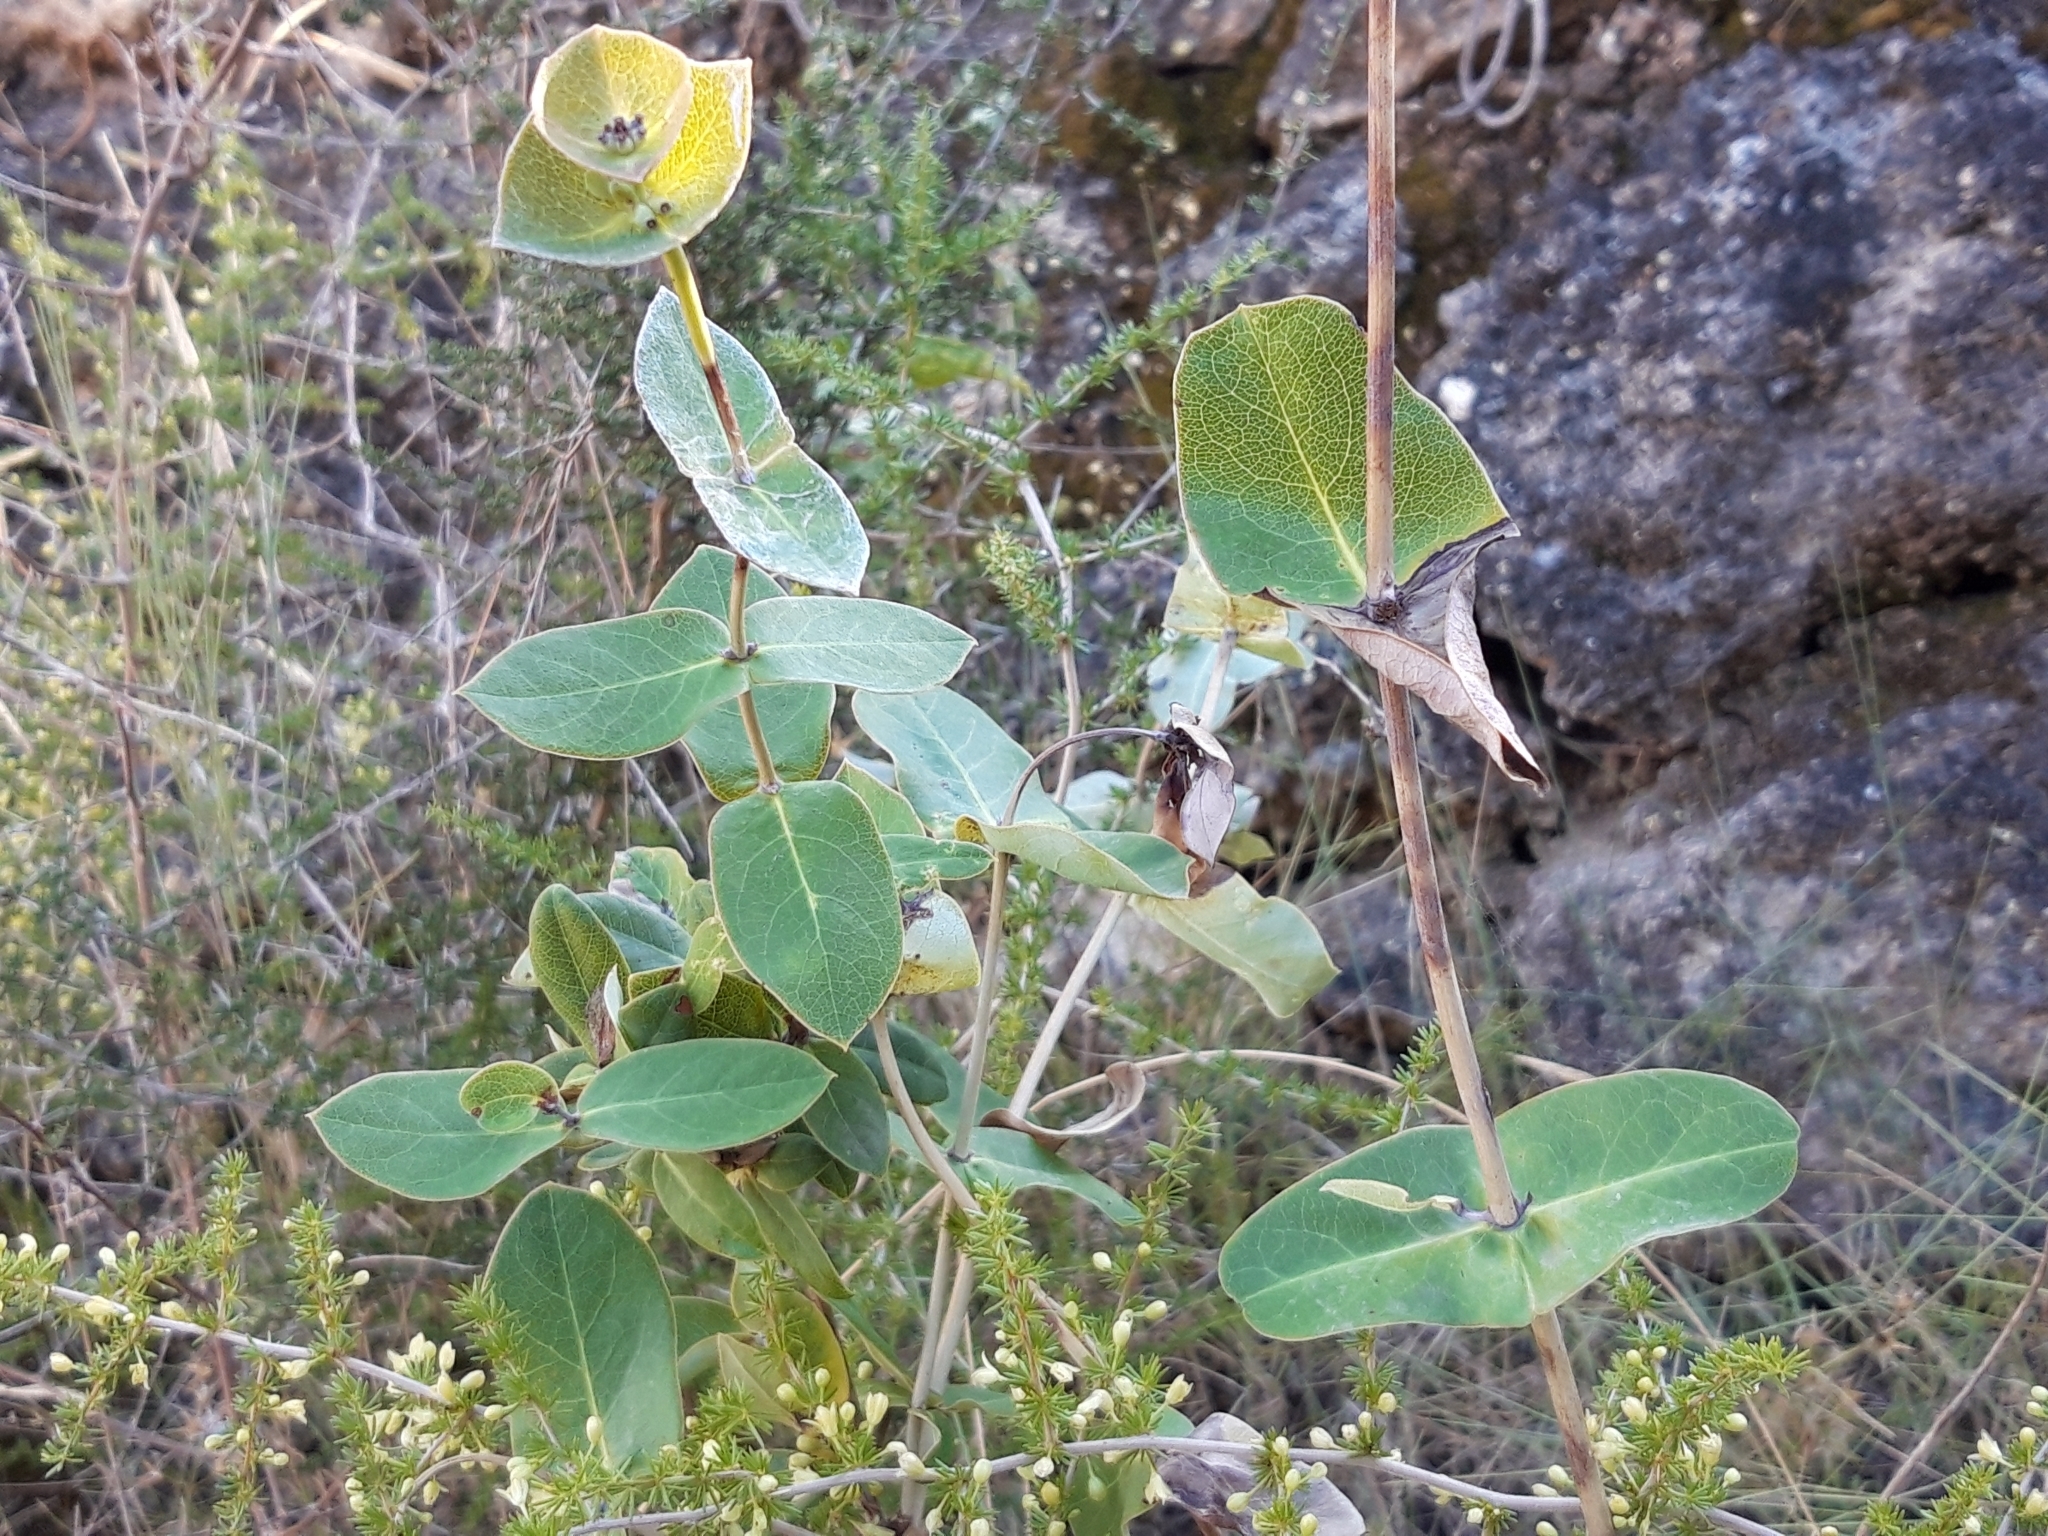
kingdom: Plantae
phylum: Tracheophyta
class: Magnoliopsida
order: Dipsacales
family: Caprifoliaceae
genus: Lonicera
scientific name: Lonicera implexa
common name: Minorca honeysuckle
